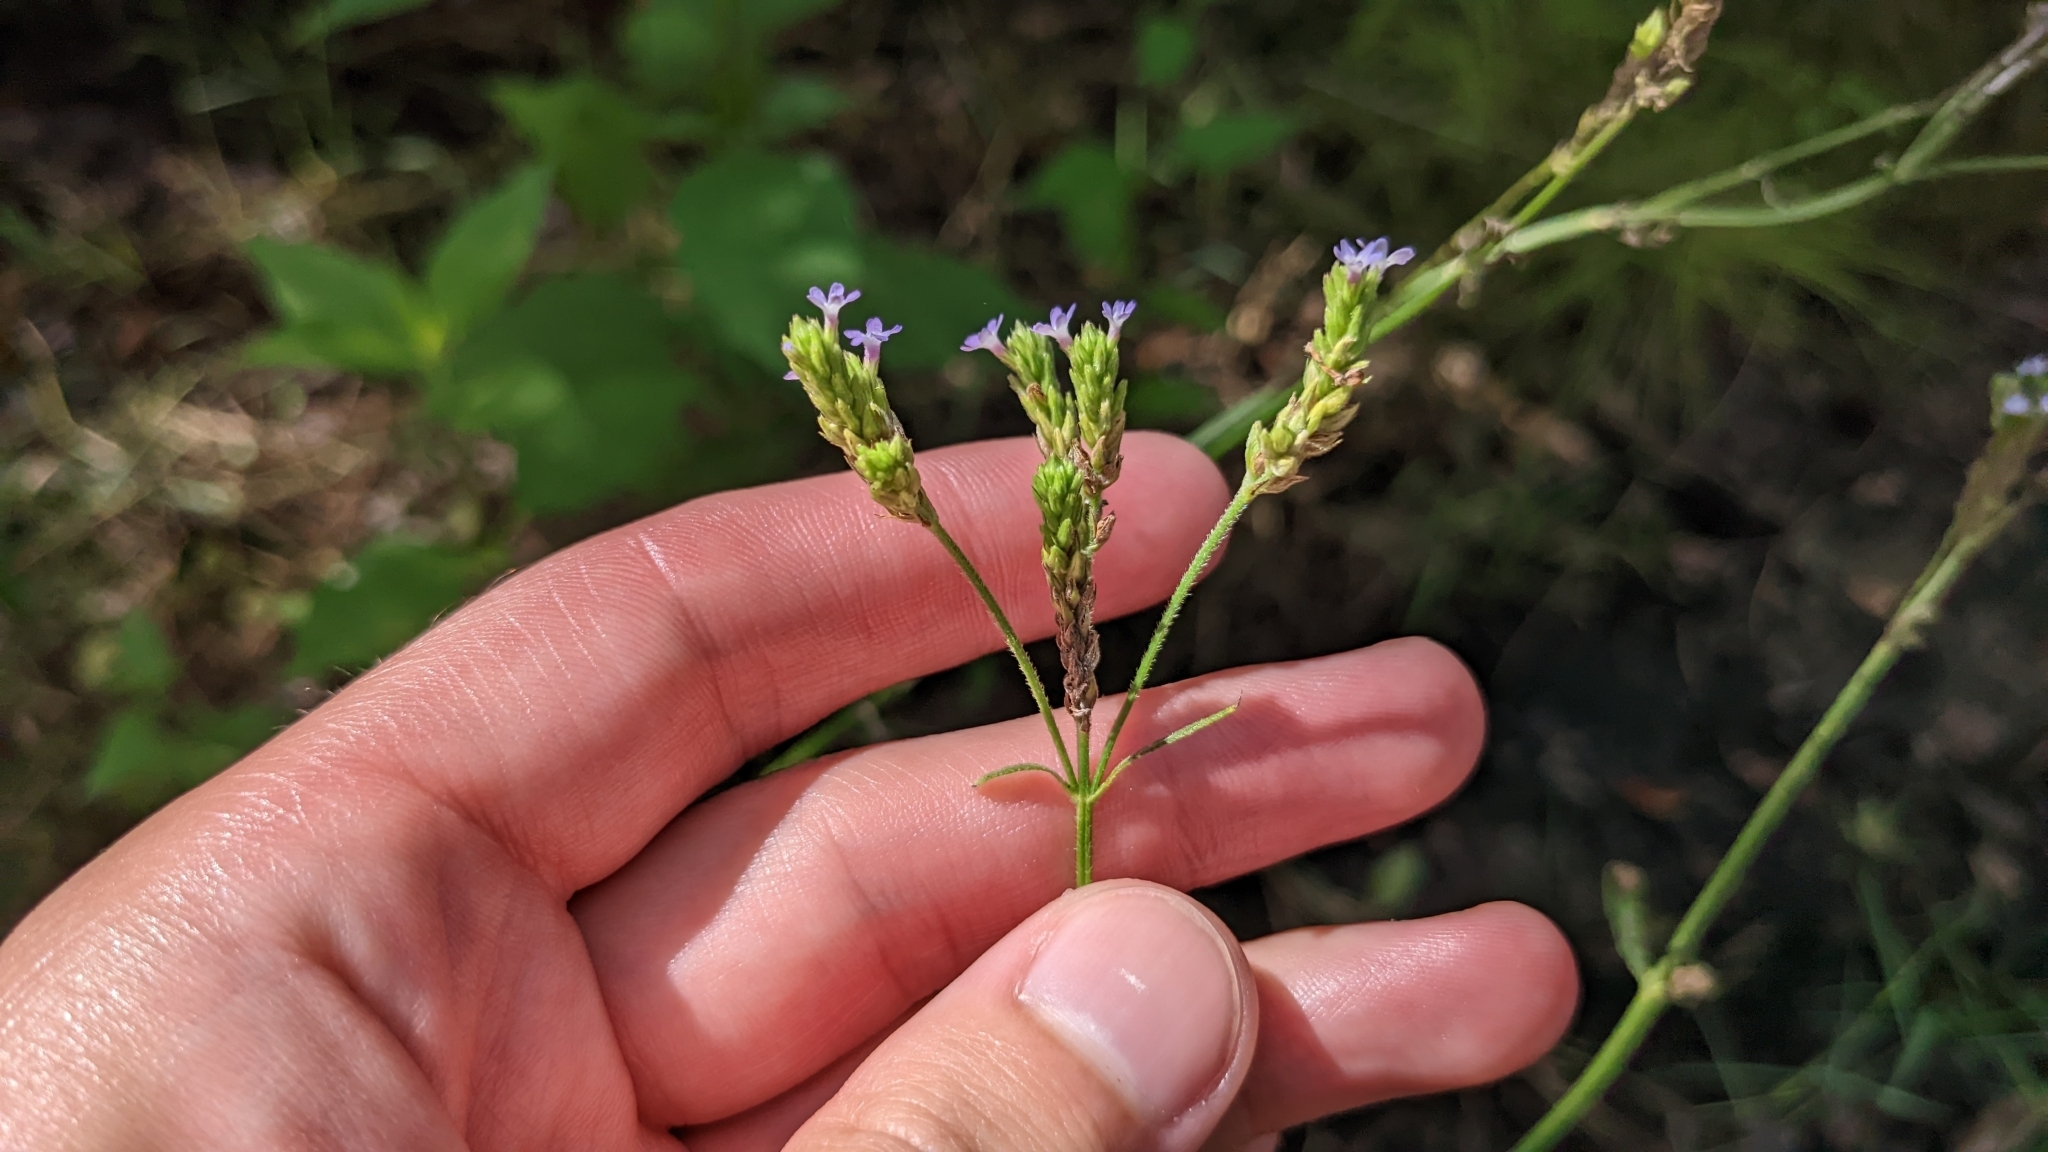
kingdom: Plantae
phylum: Tracheophyta
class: Magnoliopsida
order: Lamiales
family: Verbenaceae
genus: Verbena
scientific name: Verbena brasiliensis
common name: Brazilian vervain
